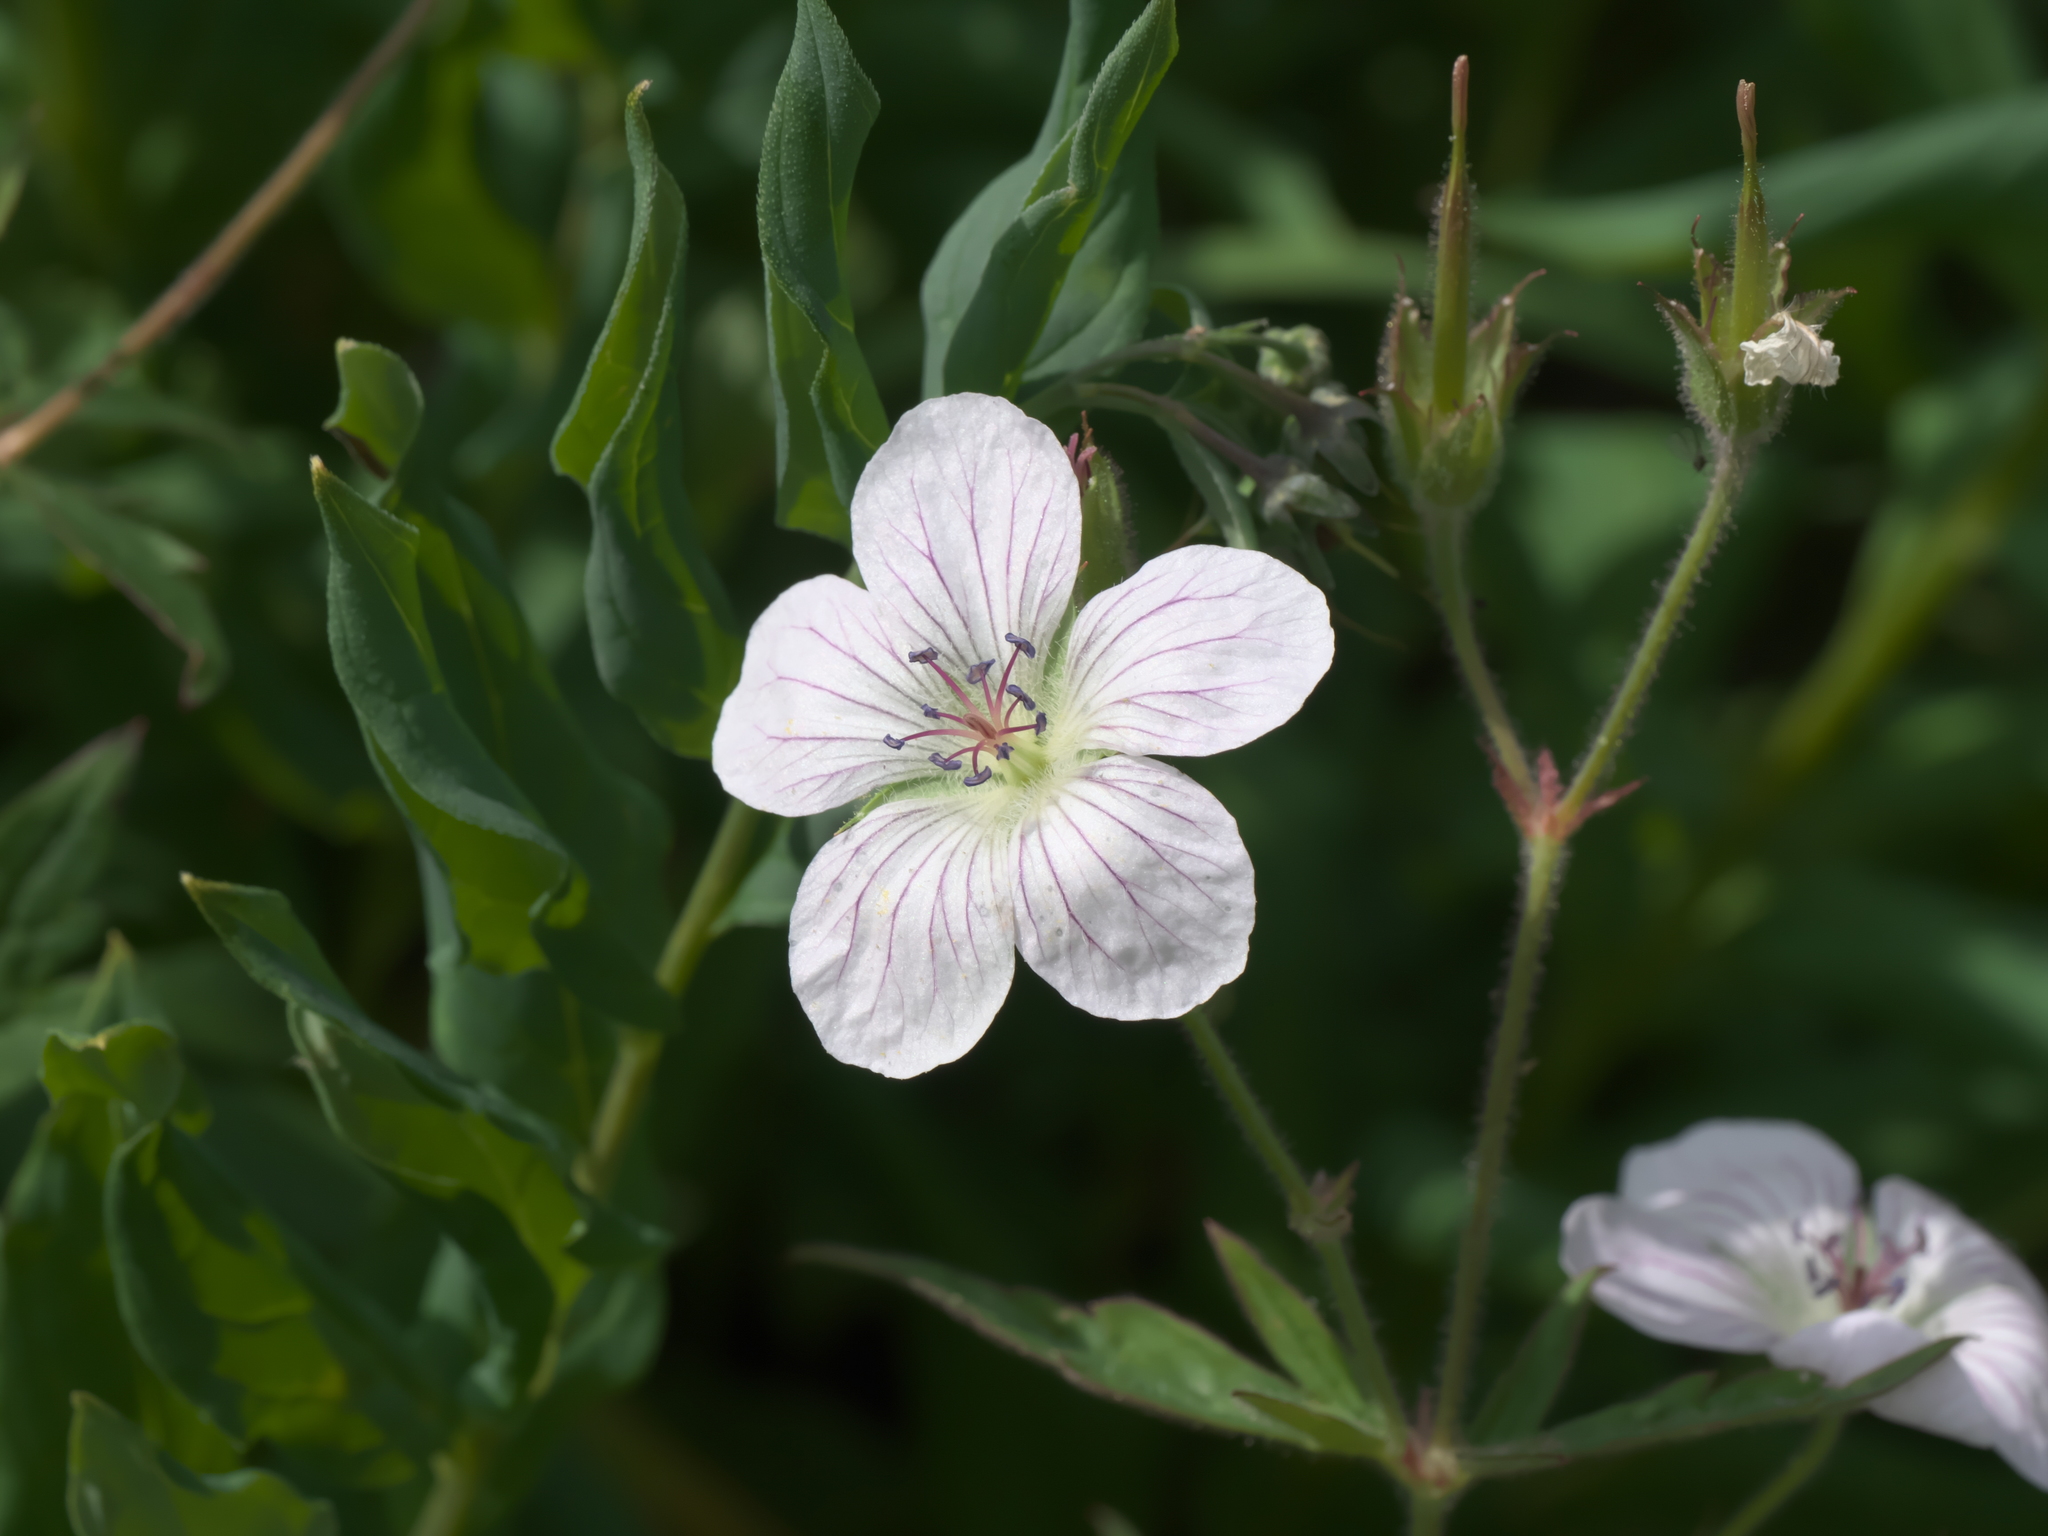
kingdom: Plantae
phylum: Tracheophyta
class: Magnoliopsida
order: Geraniales
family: Geraniaceae
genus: Geranium
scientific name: Geranium richardsonii
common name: Richardson's crane's-bill
